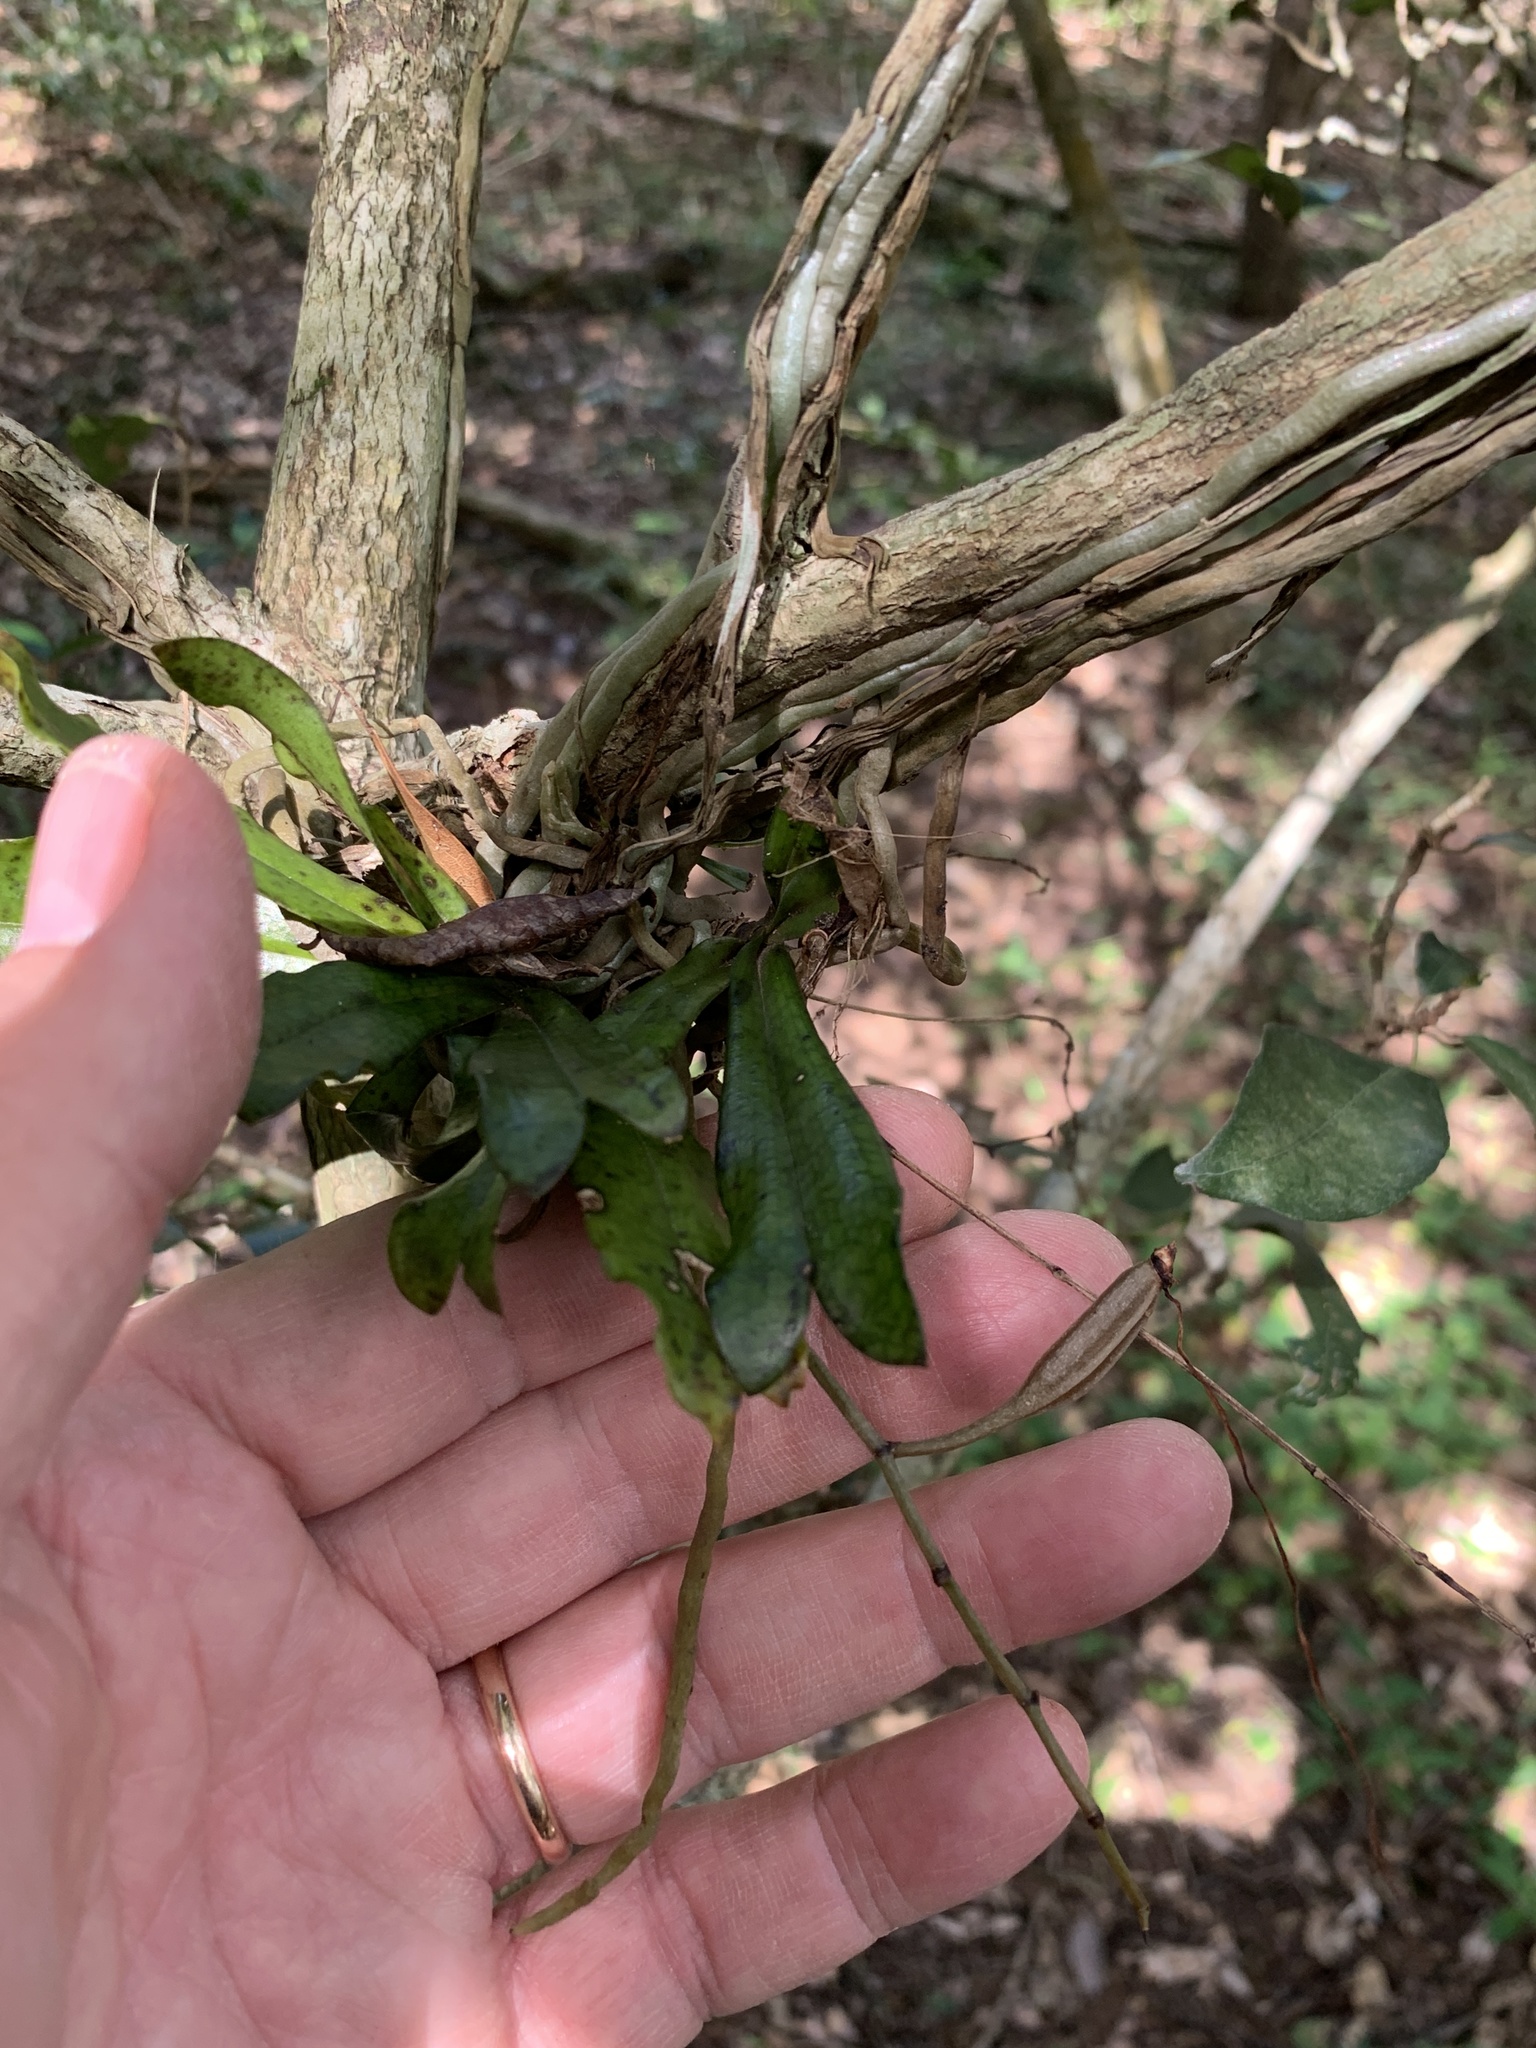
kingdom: Plantae
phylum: Tracheophyta
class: Liliopsida
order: Asparagales
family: Orchidaceae
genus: Aerangis
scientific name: Aerangis mystacidii
